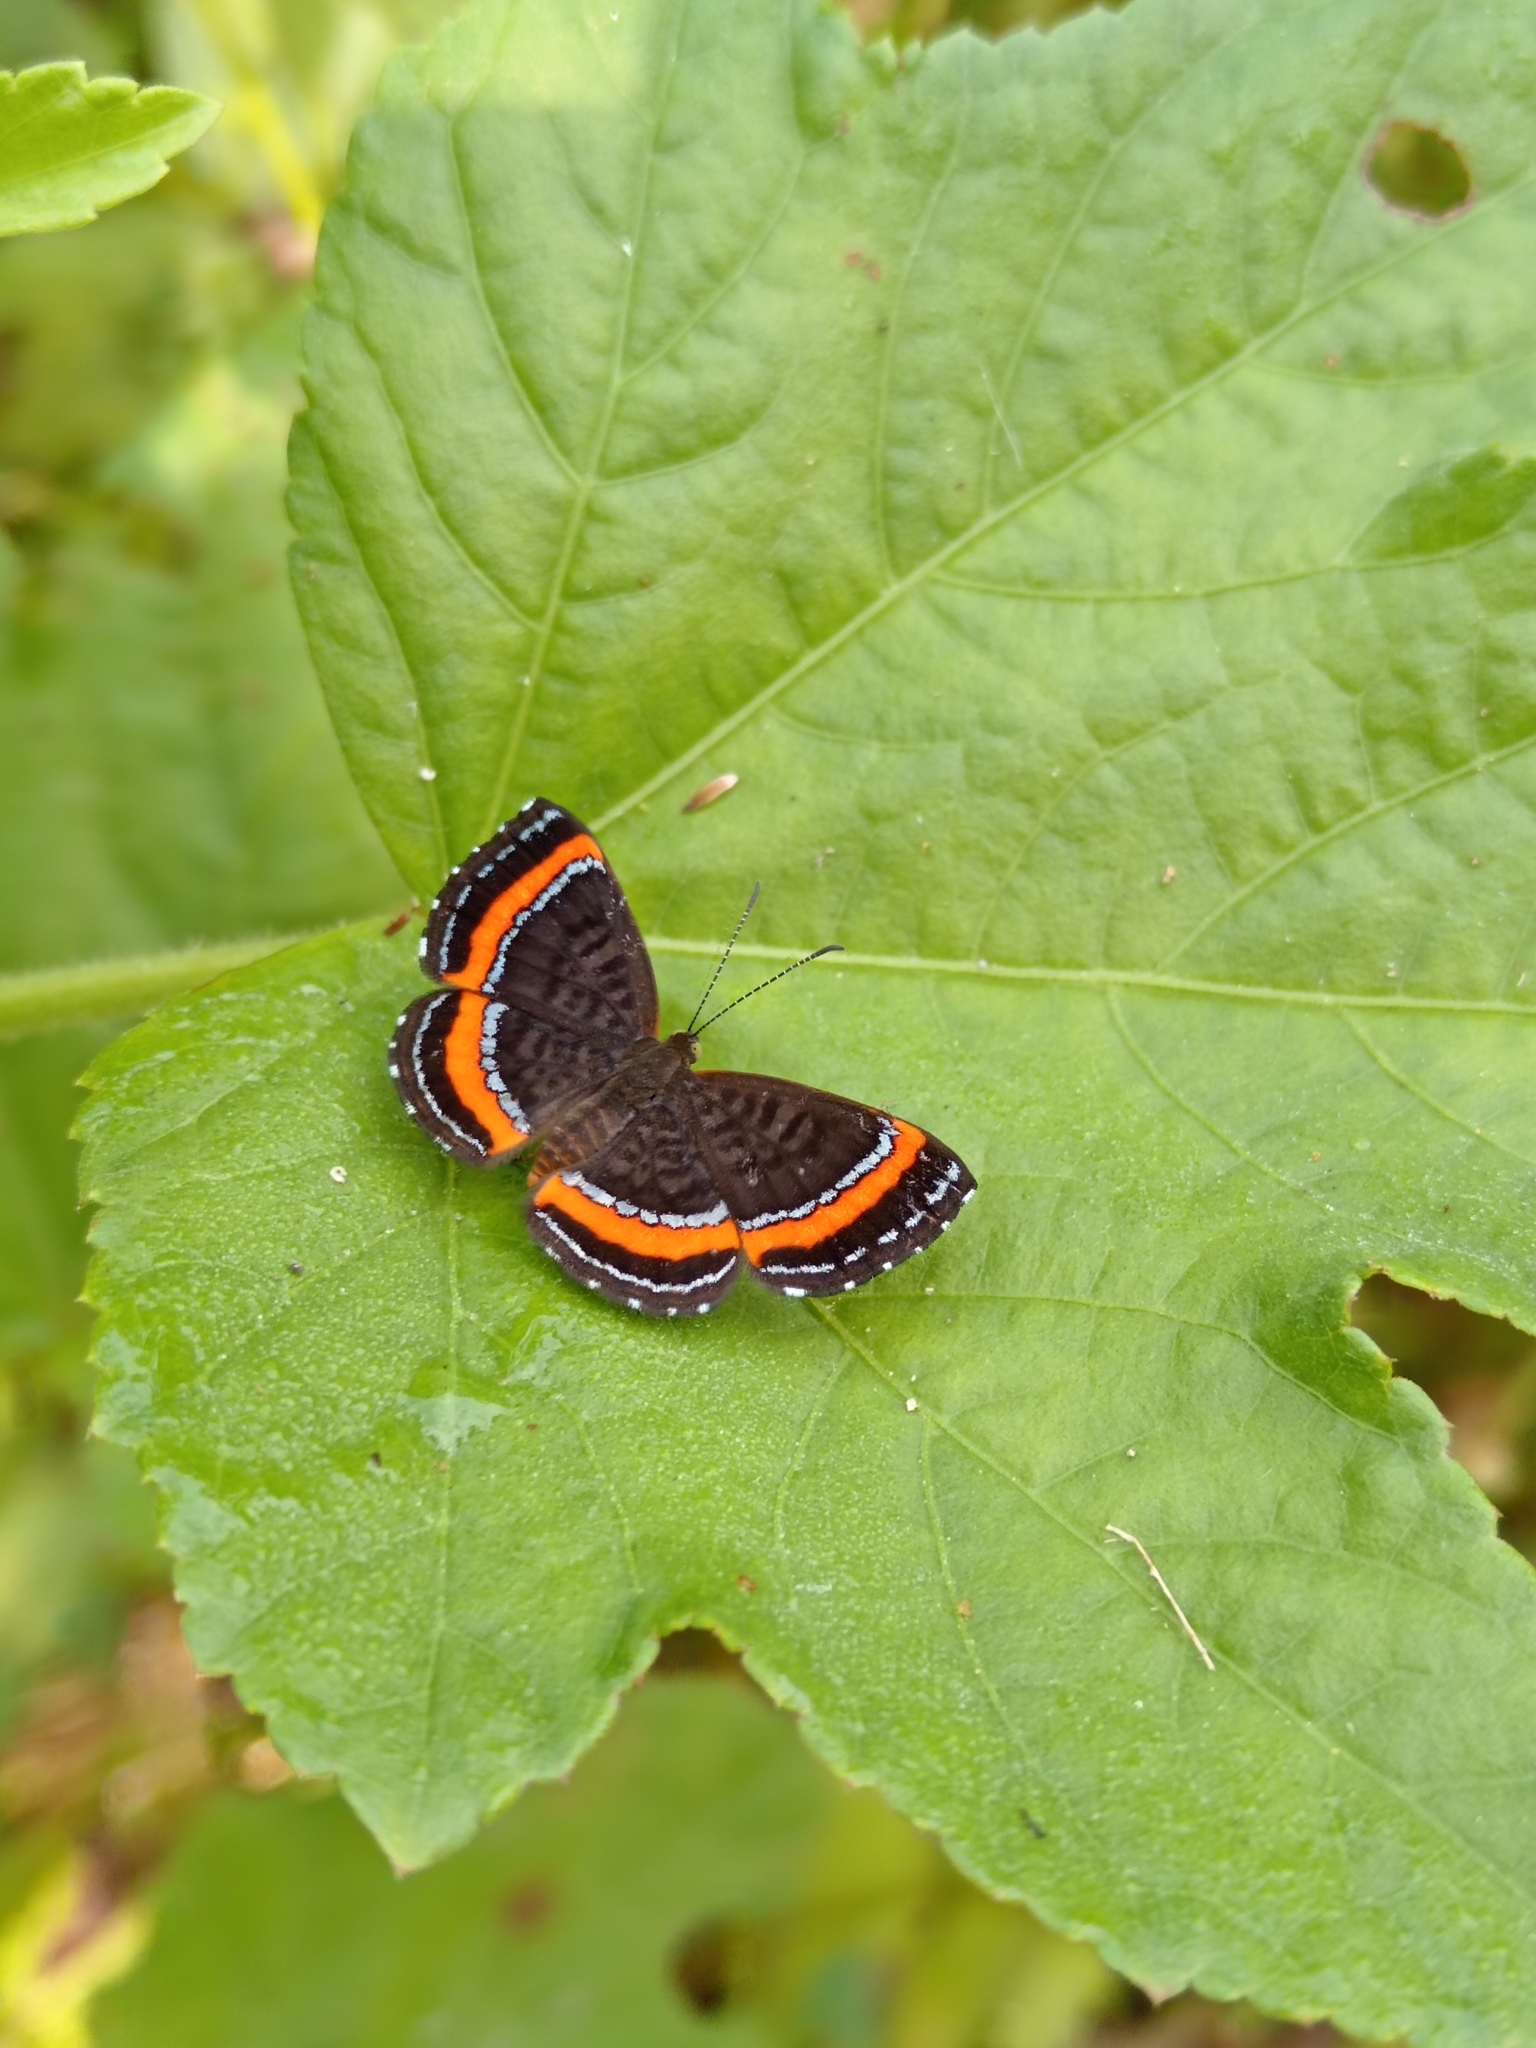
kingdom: Animalia
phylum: Arthropoda
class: Insecta
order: Lepidoptera
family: Riodinidae
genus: Crocozona
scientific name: Crocozona coecias
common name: Orange-banded gem
